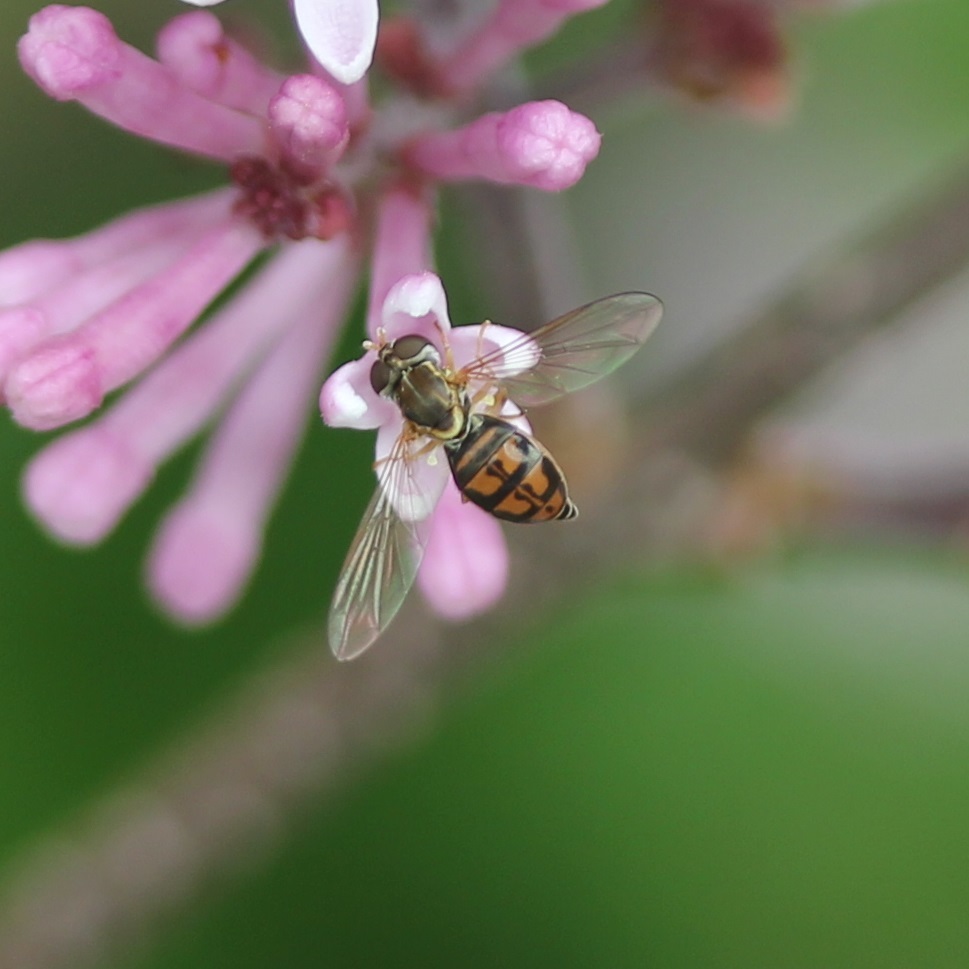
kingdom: Animalia
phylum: Arthropoda
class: Insecta
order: Diptera
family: Syrphidae
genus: Toxomerus
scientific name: Toxomerus marginatus
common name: Syrphid fly
